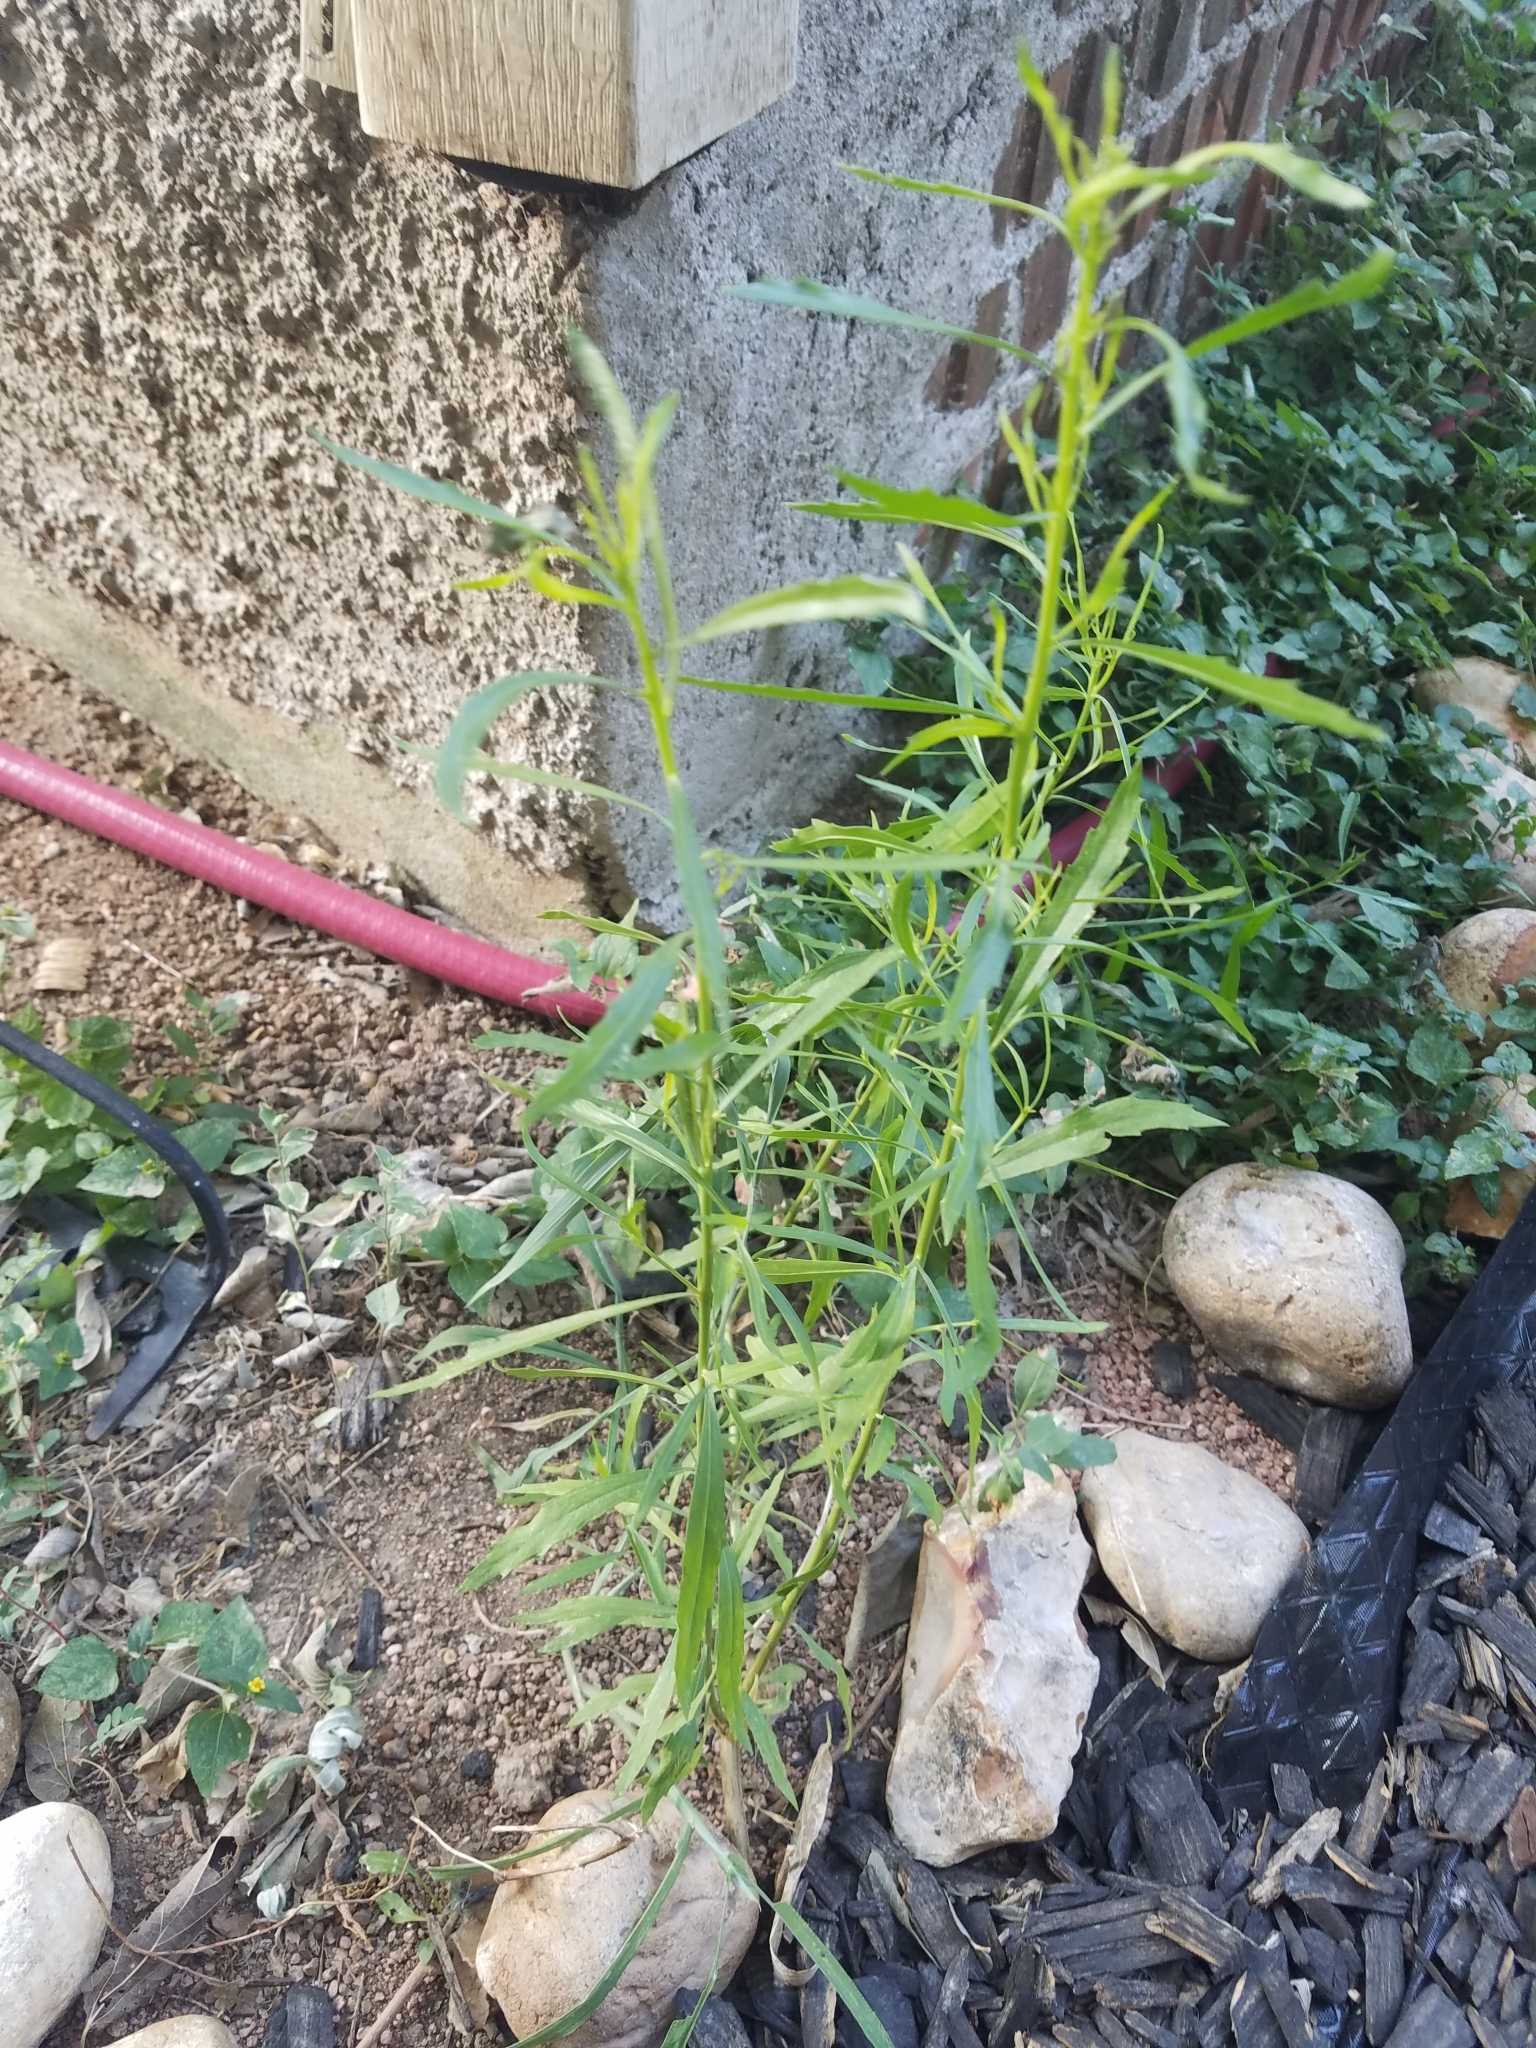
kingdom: Plantae
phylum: Tracheophyta
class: Magnoliopsida
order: Asterales
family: Asteraceae
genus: Erigeron
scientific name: Erigeron canadensis
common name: Canadian fleabane
